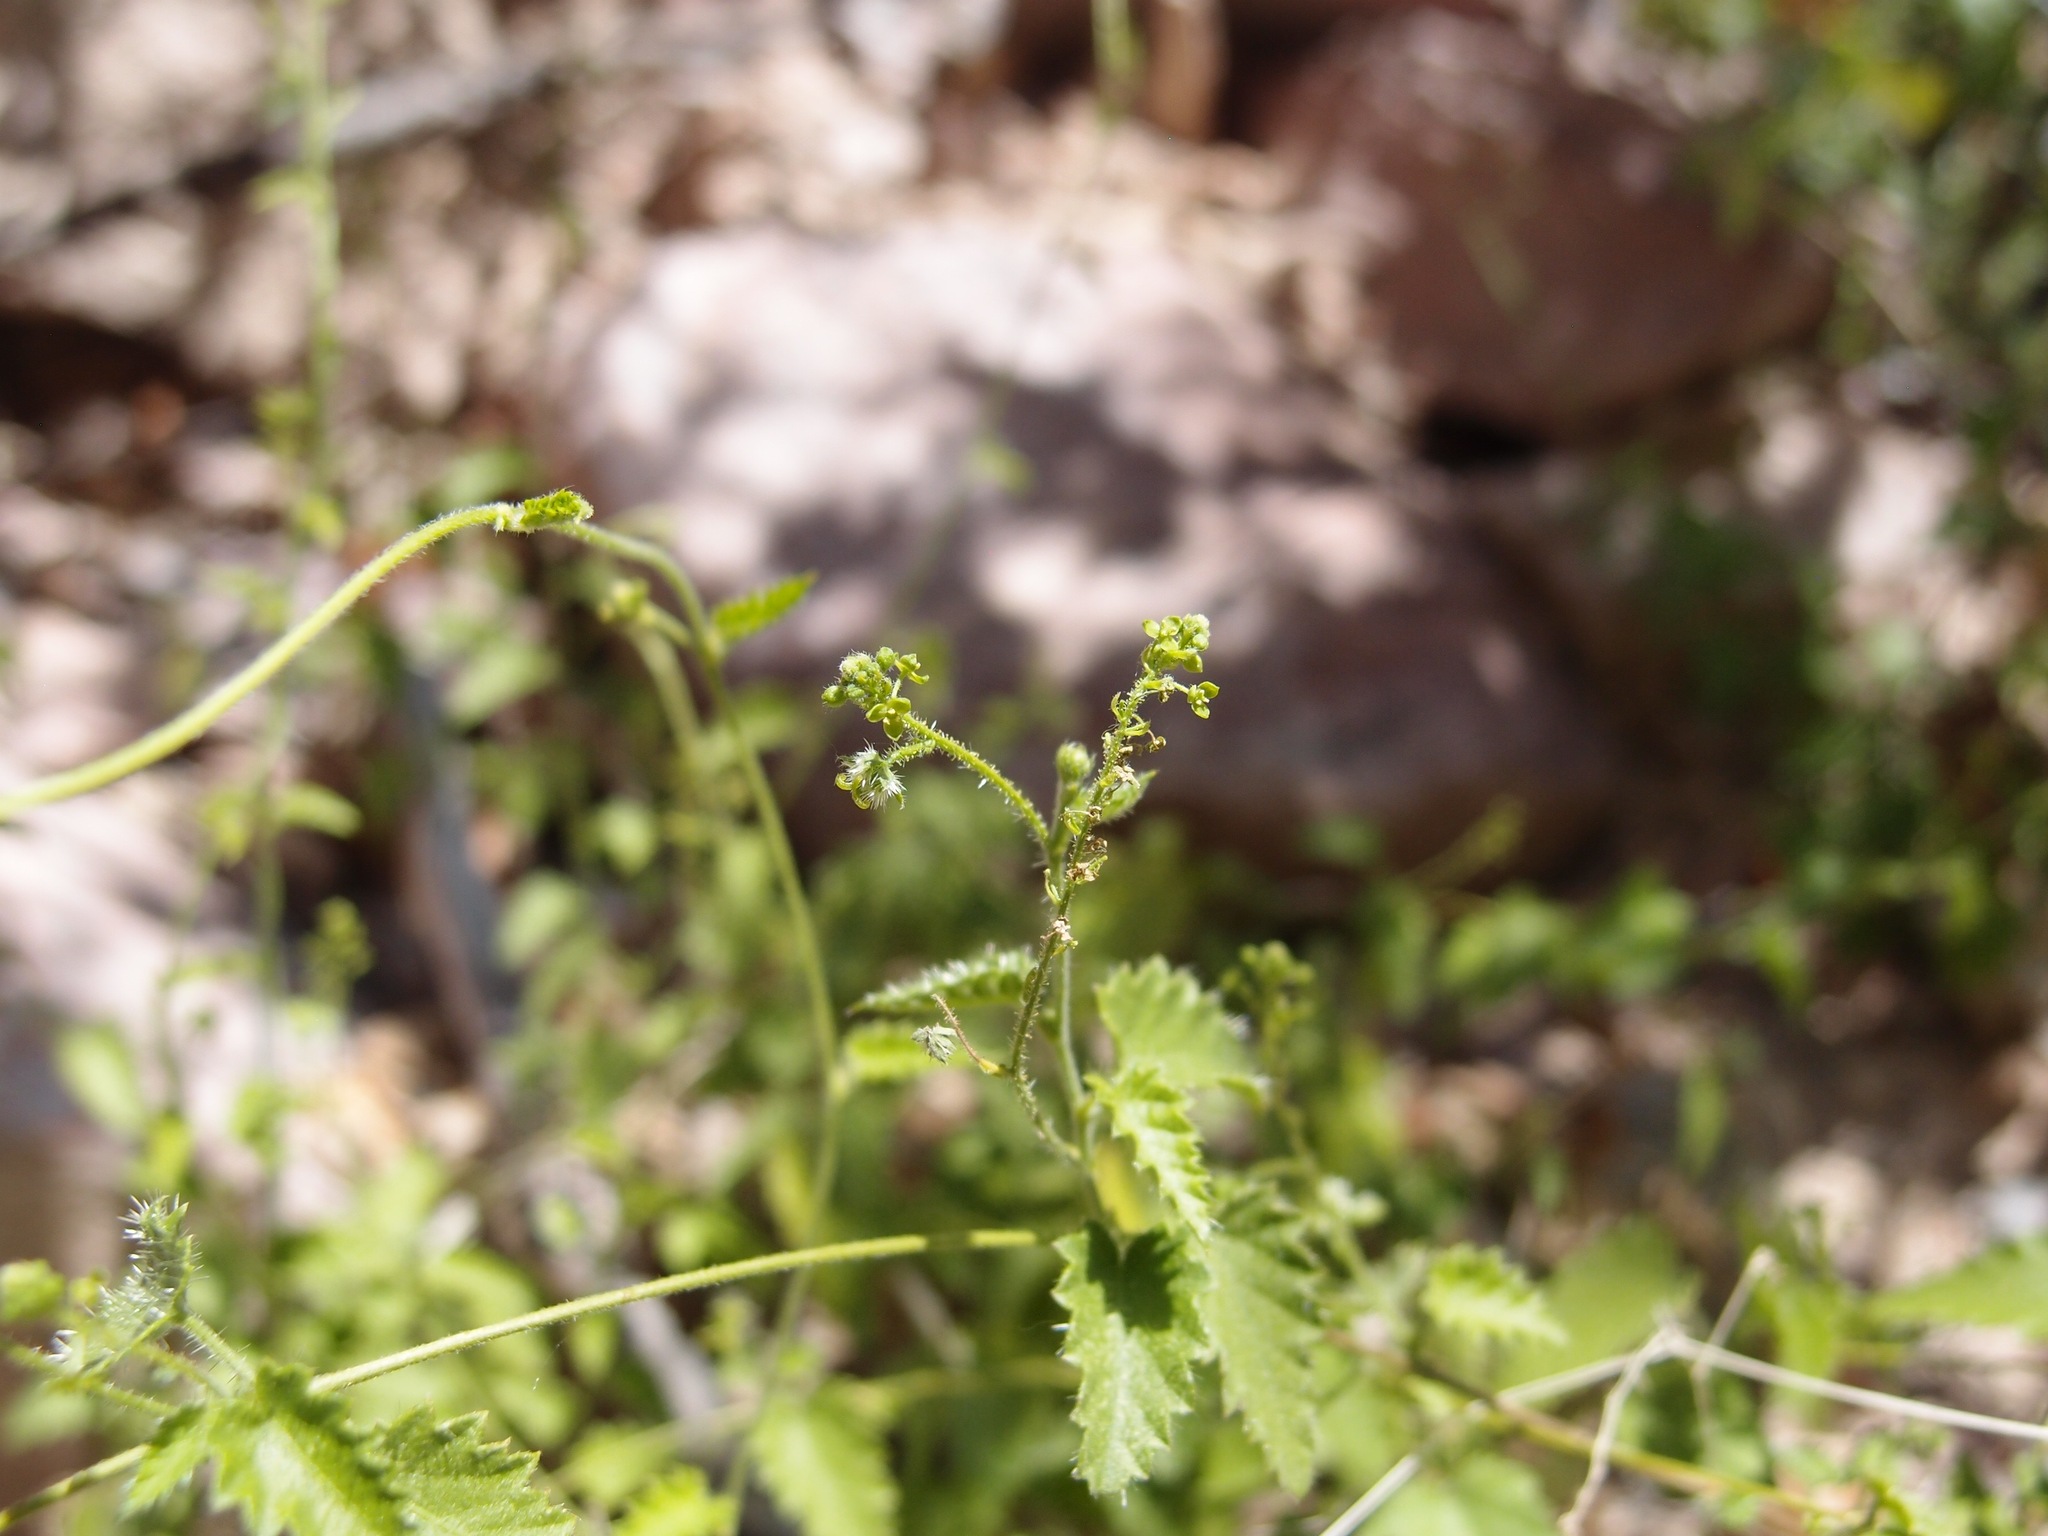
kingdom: Plantae
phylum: Tracheophyta
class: Magnoliopsida
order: Malpighiales
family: Euphorbiaceae
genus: Tragia
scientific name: Tragia jonesii
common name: Jones' noseburn
